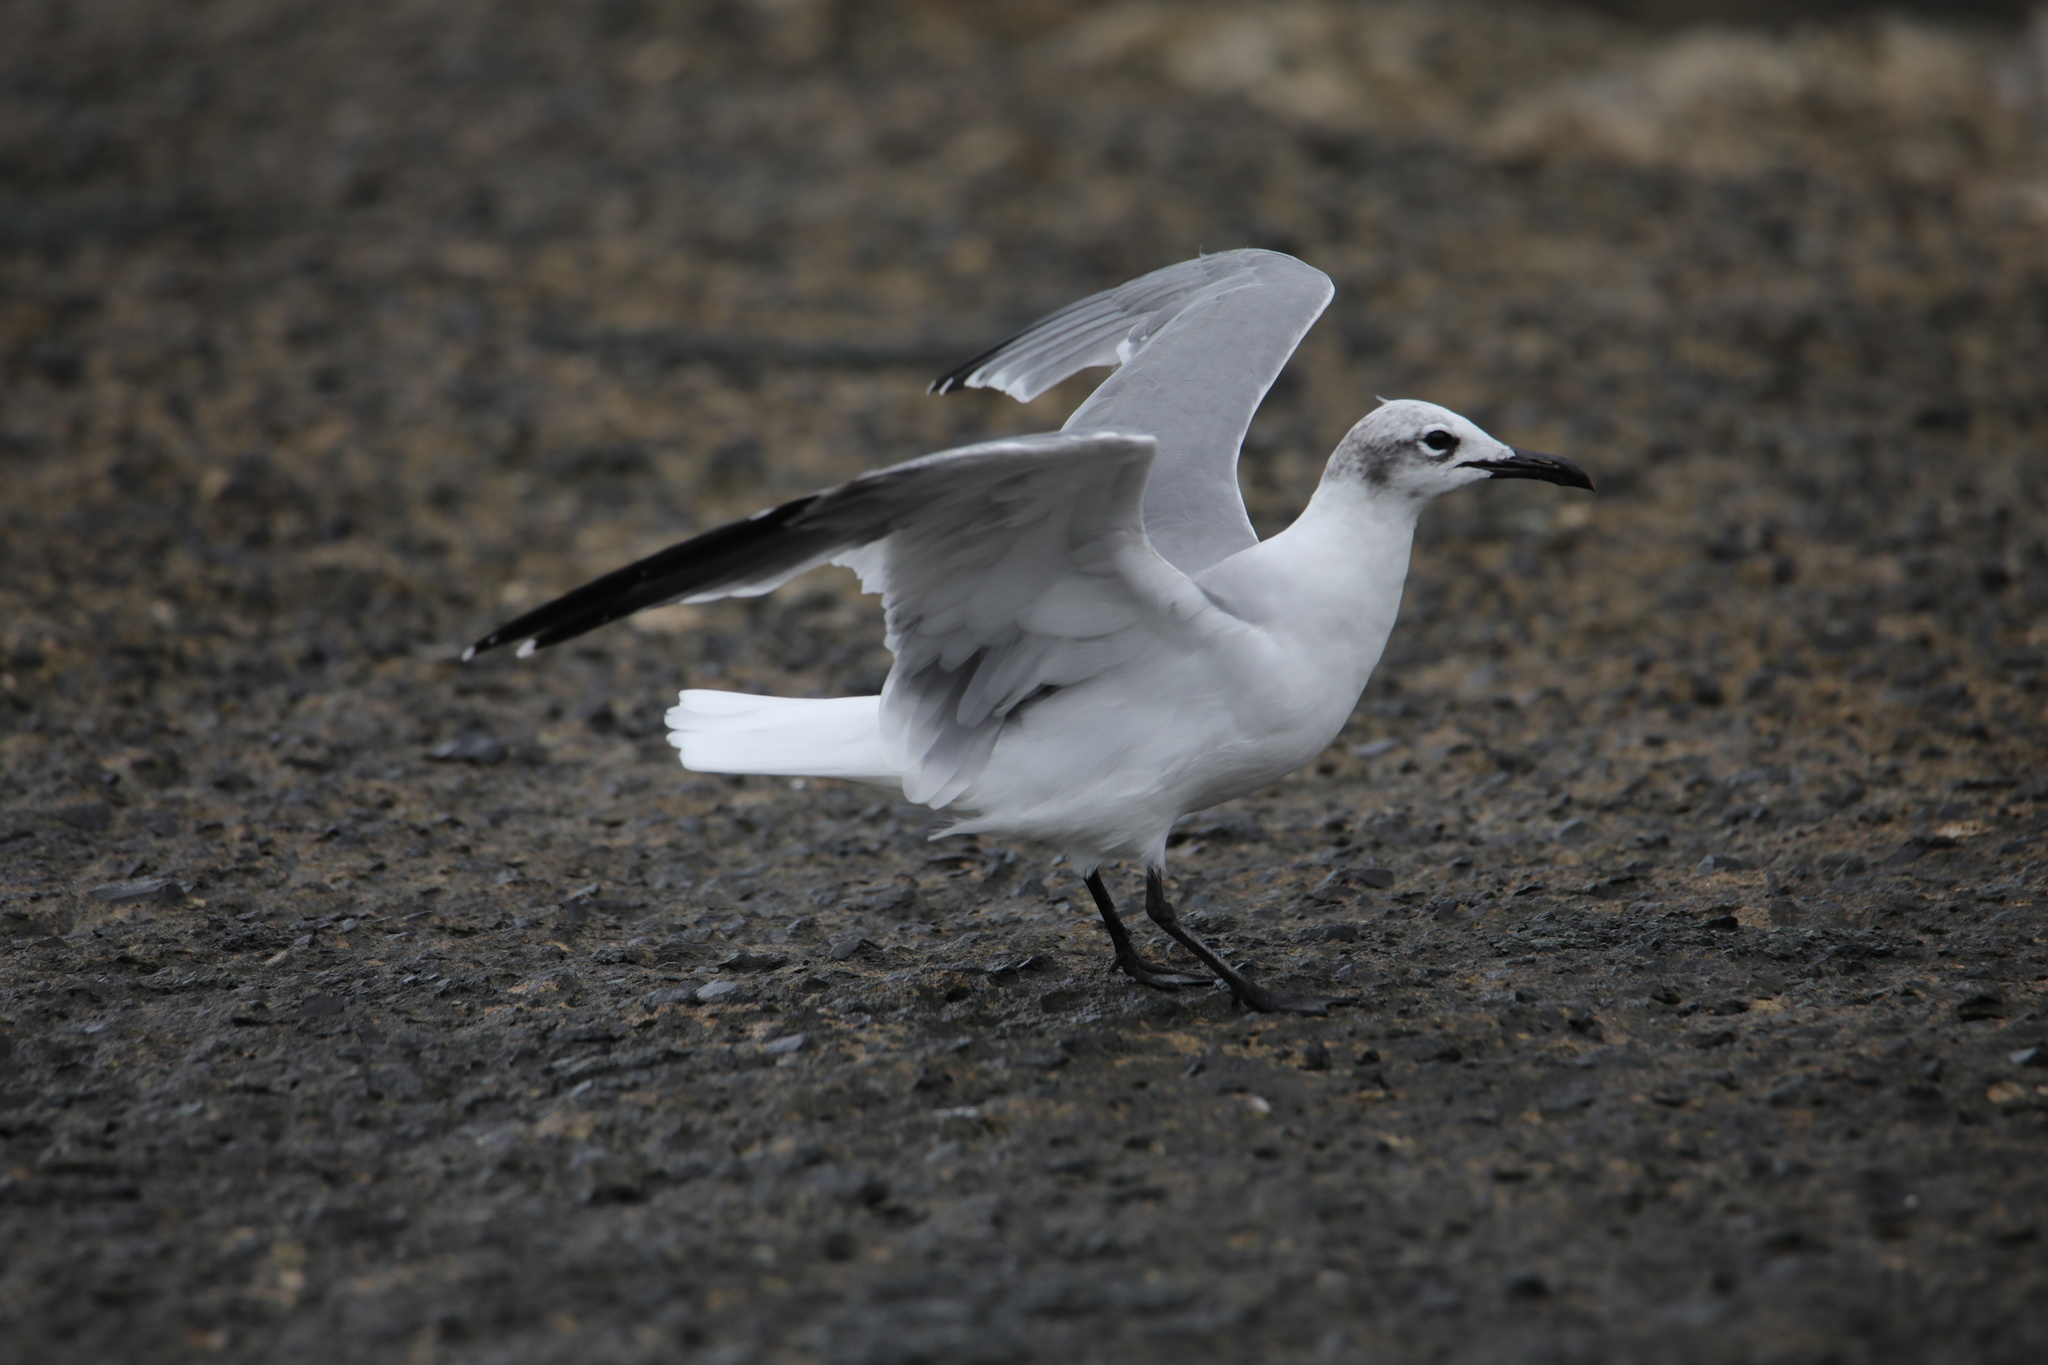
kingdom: Animalia
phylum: Chordata
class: Aves
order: Charadriiformes
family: Laridae
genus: Leucophaeus
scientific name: Leucophaeus atricilla
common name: Laughing gull
